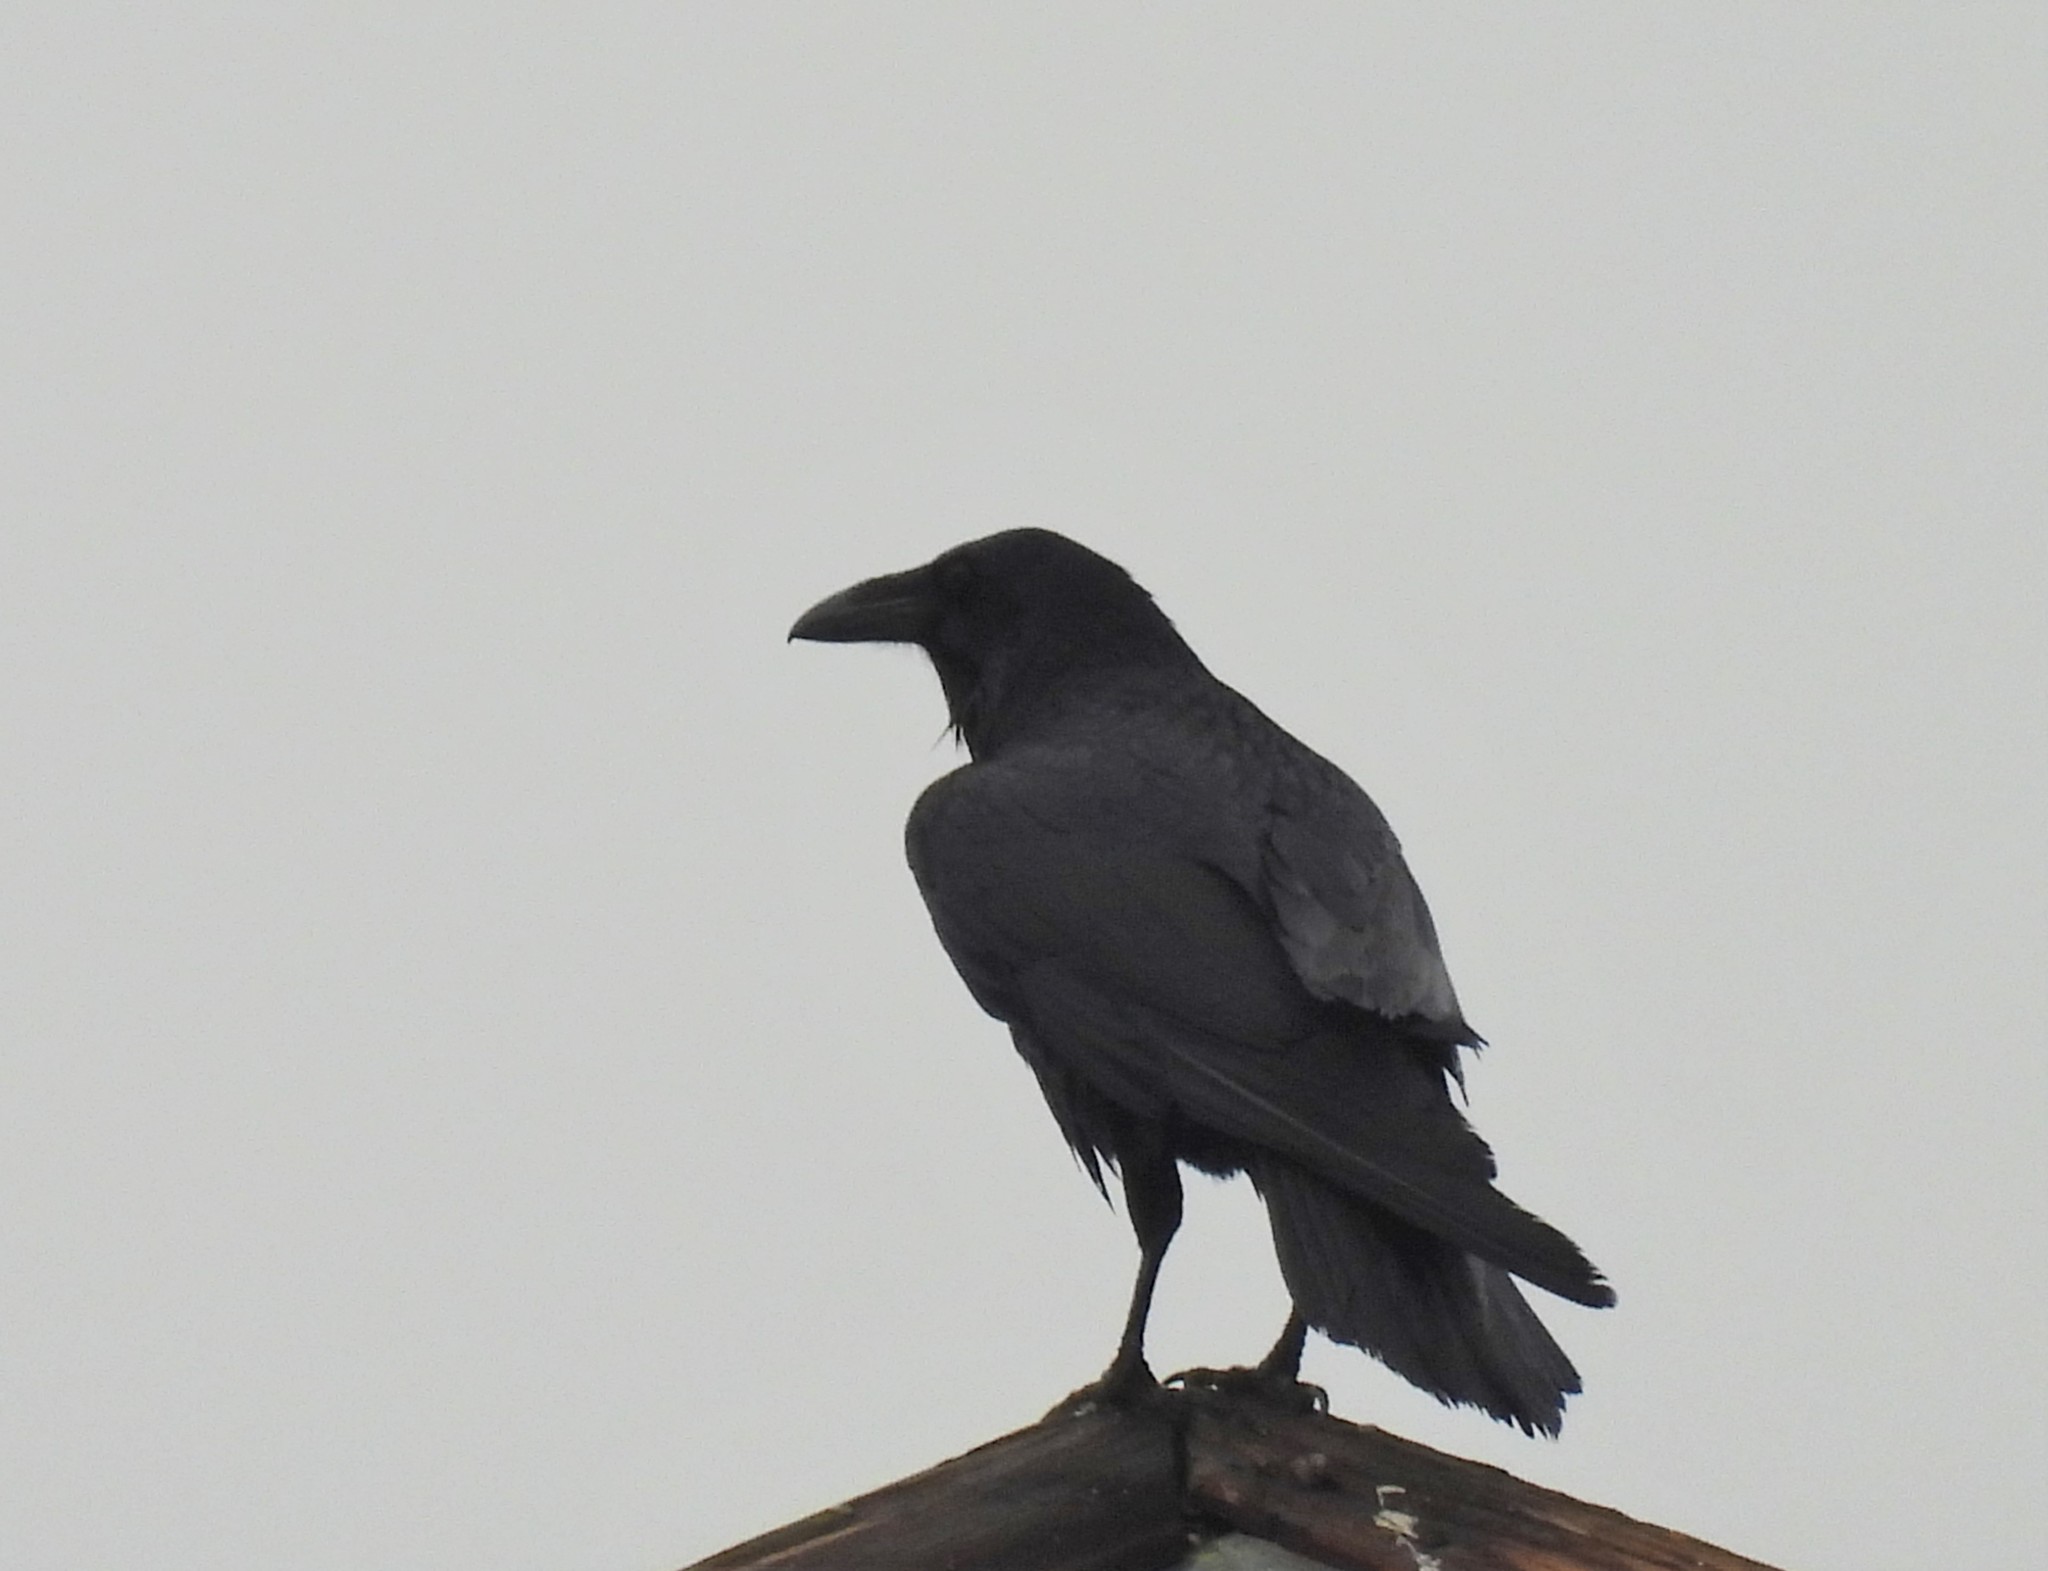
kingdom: Animalia
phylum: Chordata
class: Aves
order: Passeriformes
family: Corvidae
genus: Corvus
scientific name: Corvus corax
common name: Common raven
